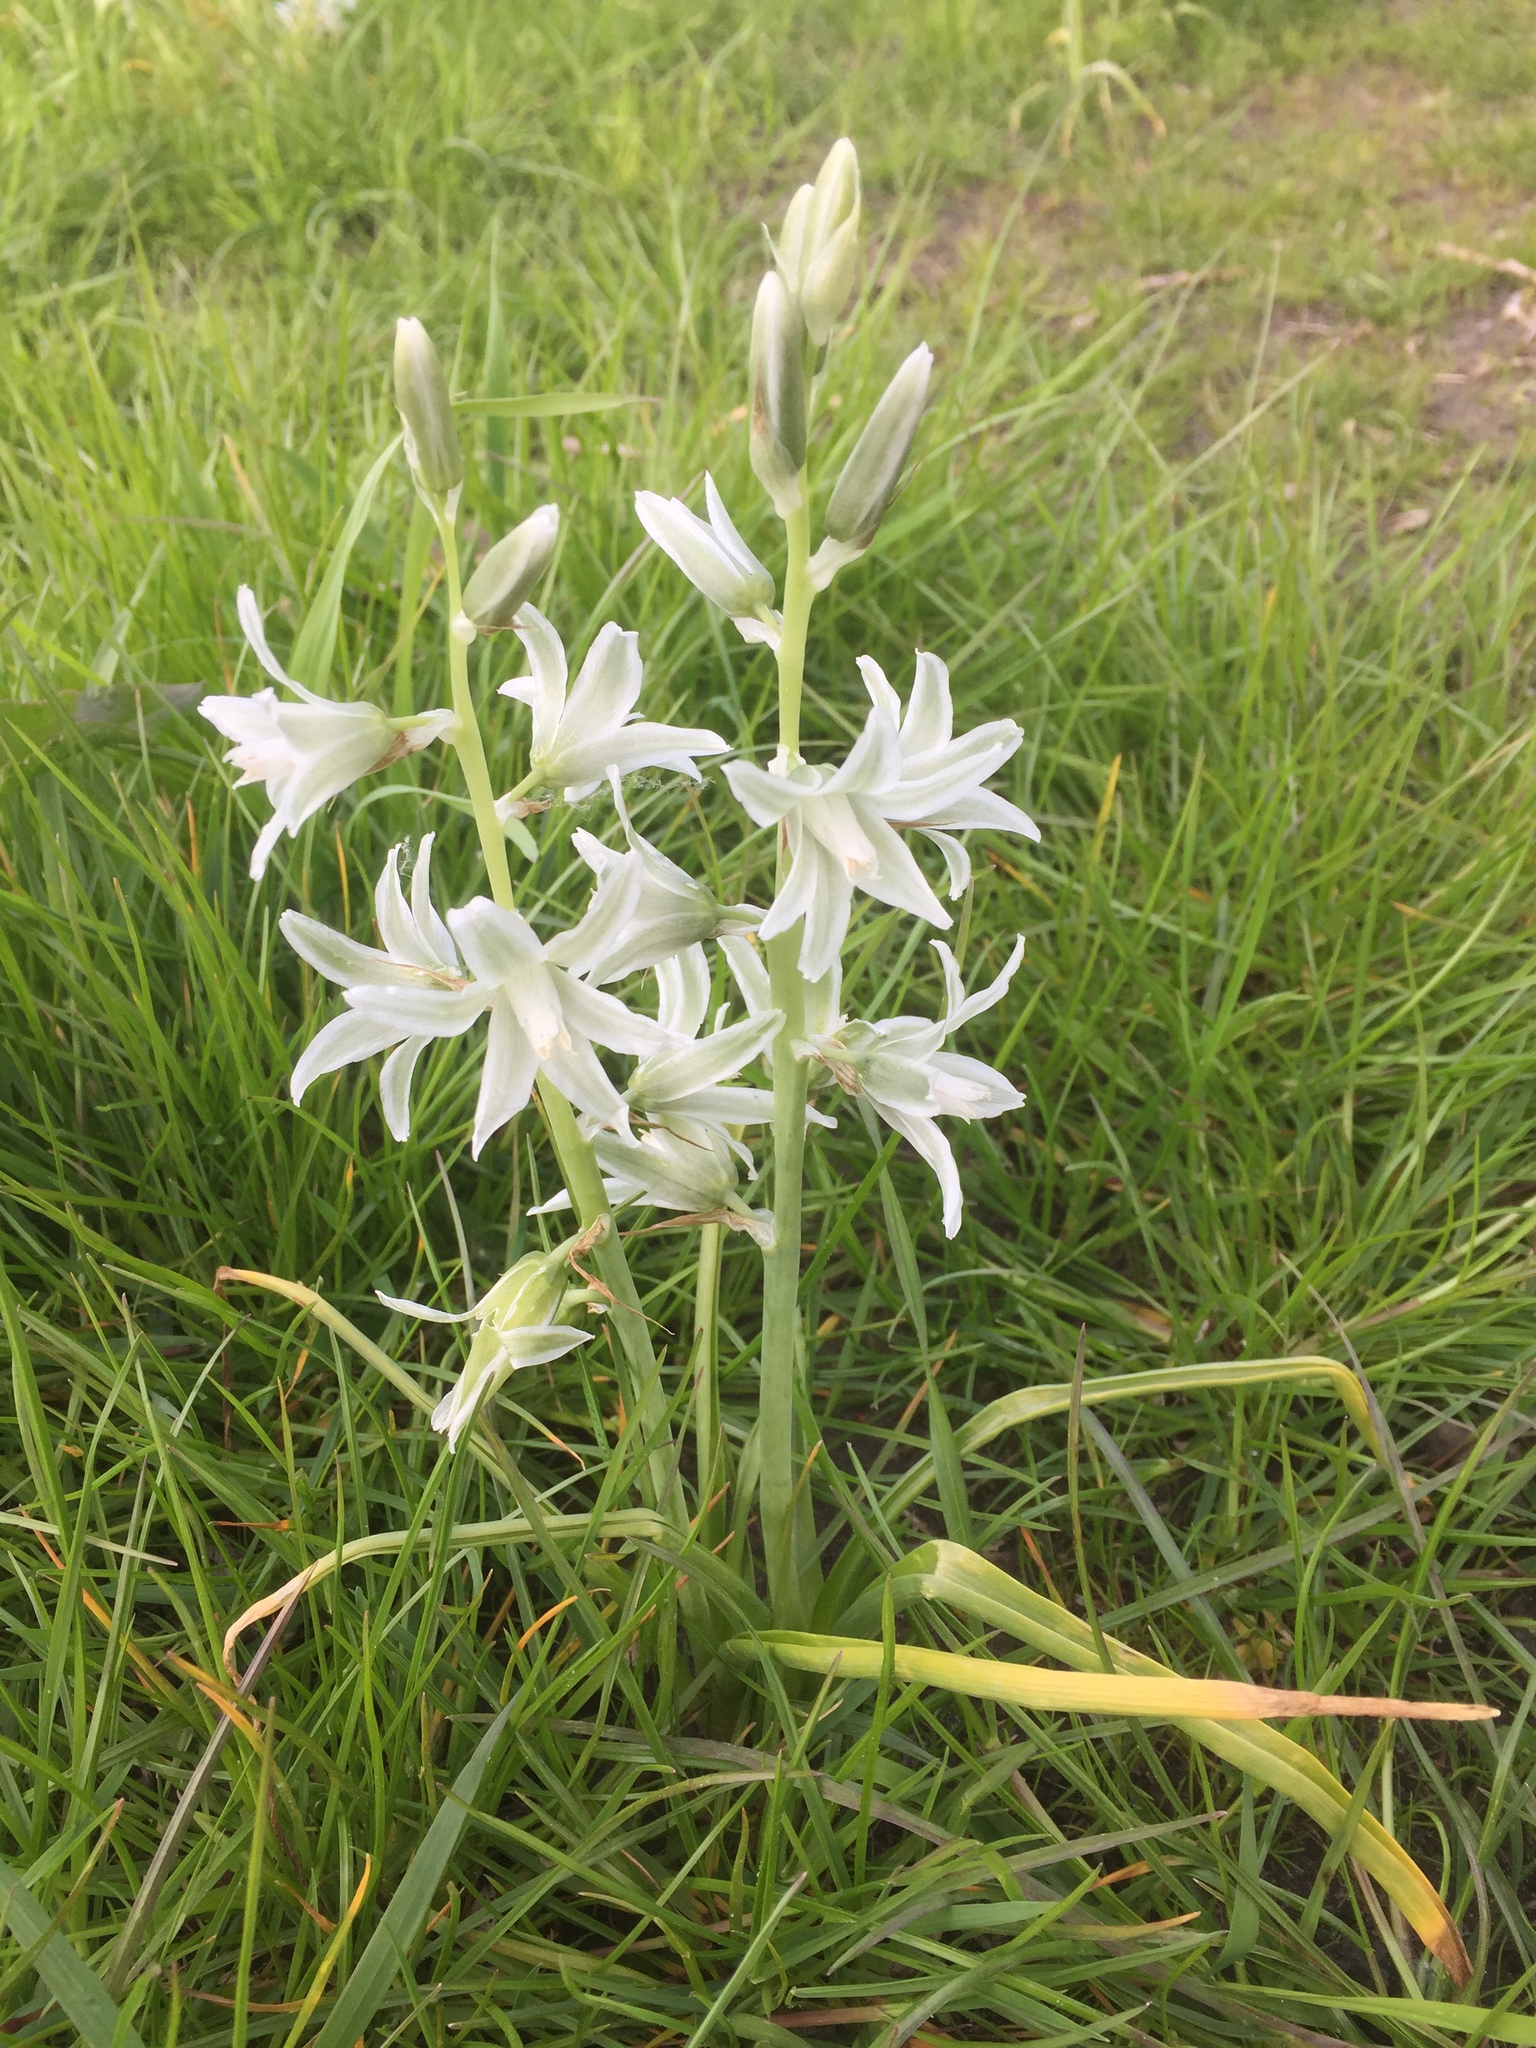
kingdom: Plantae
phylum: Tracheophyta
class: Liliopsida
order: Asparagales
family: Asparagaceae
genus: Ornithogalum
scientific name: Ornithogalum nutans
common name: Drooping star-of-bethlehem
